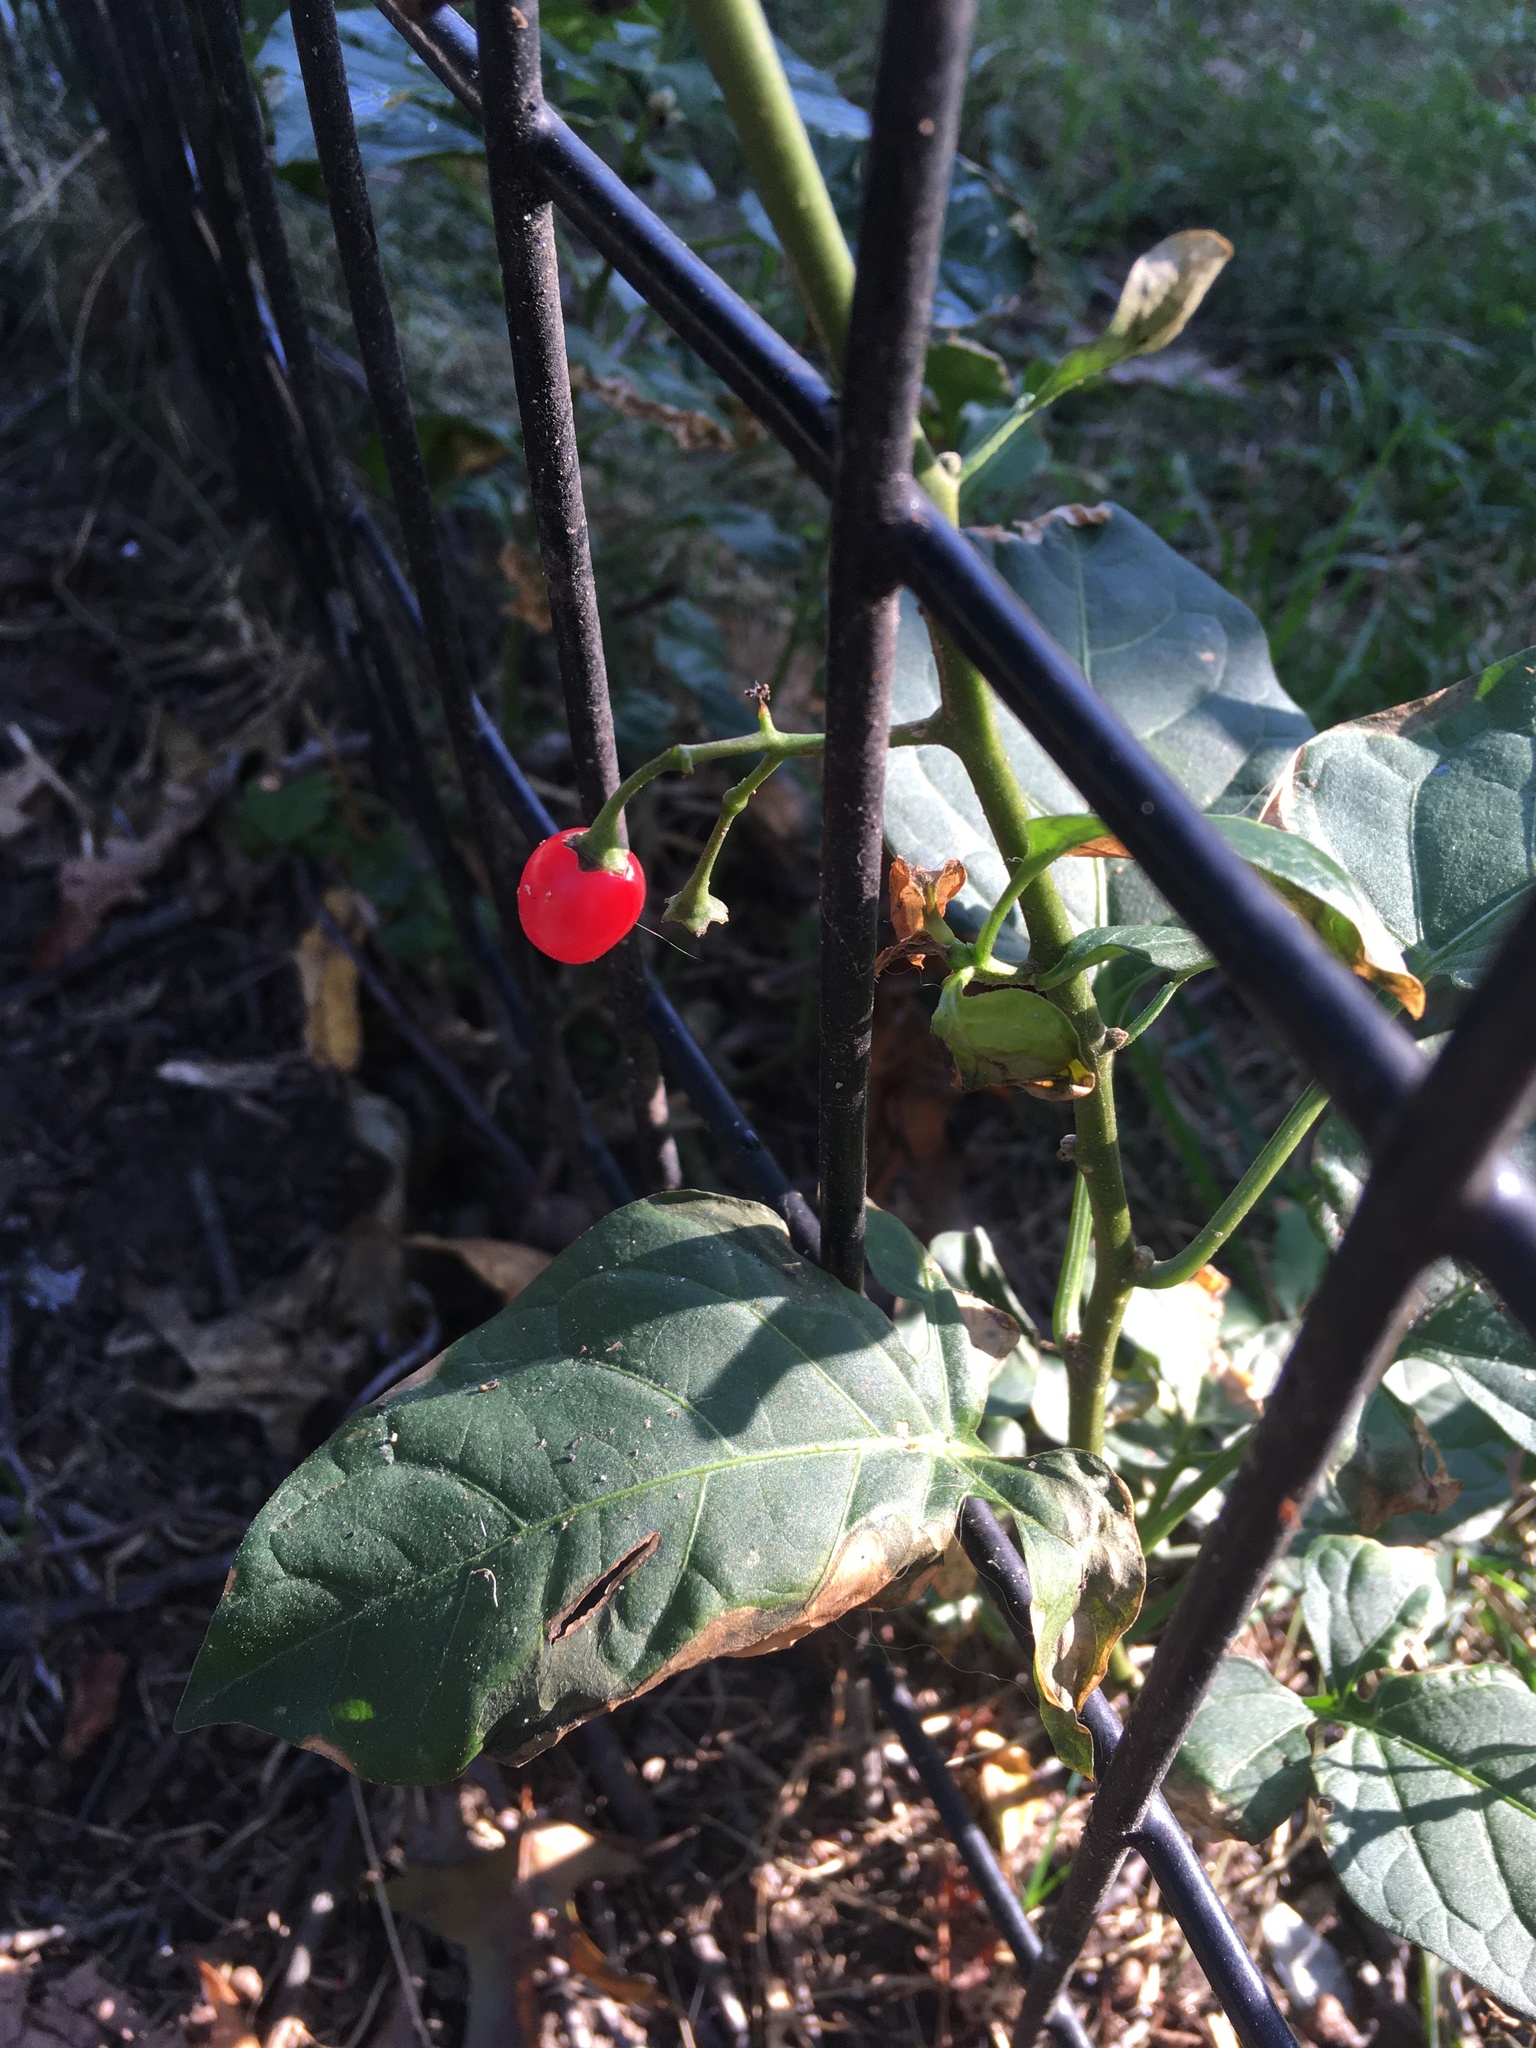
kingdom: Plantae
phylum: Tracheophyta
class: Magnoliopsida
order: Solanales
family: Solanaceae
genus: Solanum
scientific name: Solanum dulcamara
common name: Climbing nightshade
